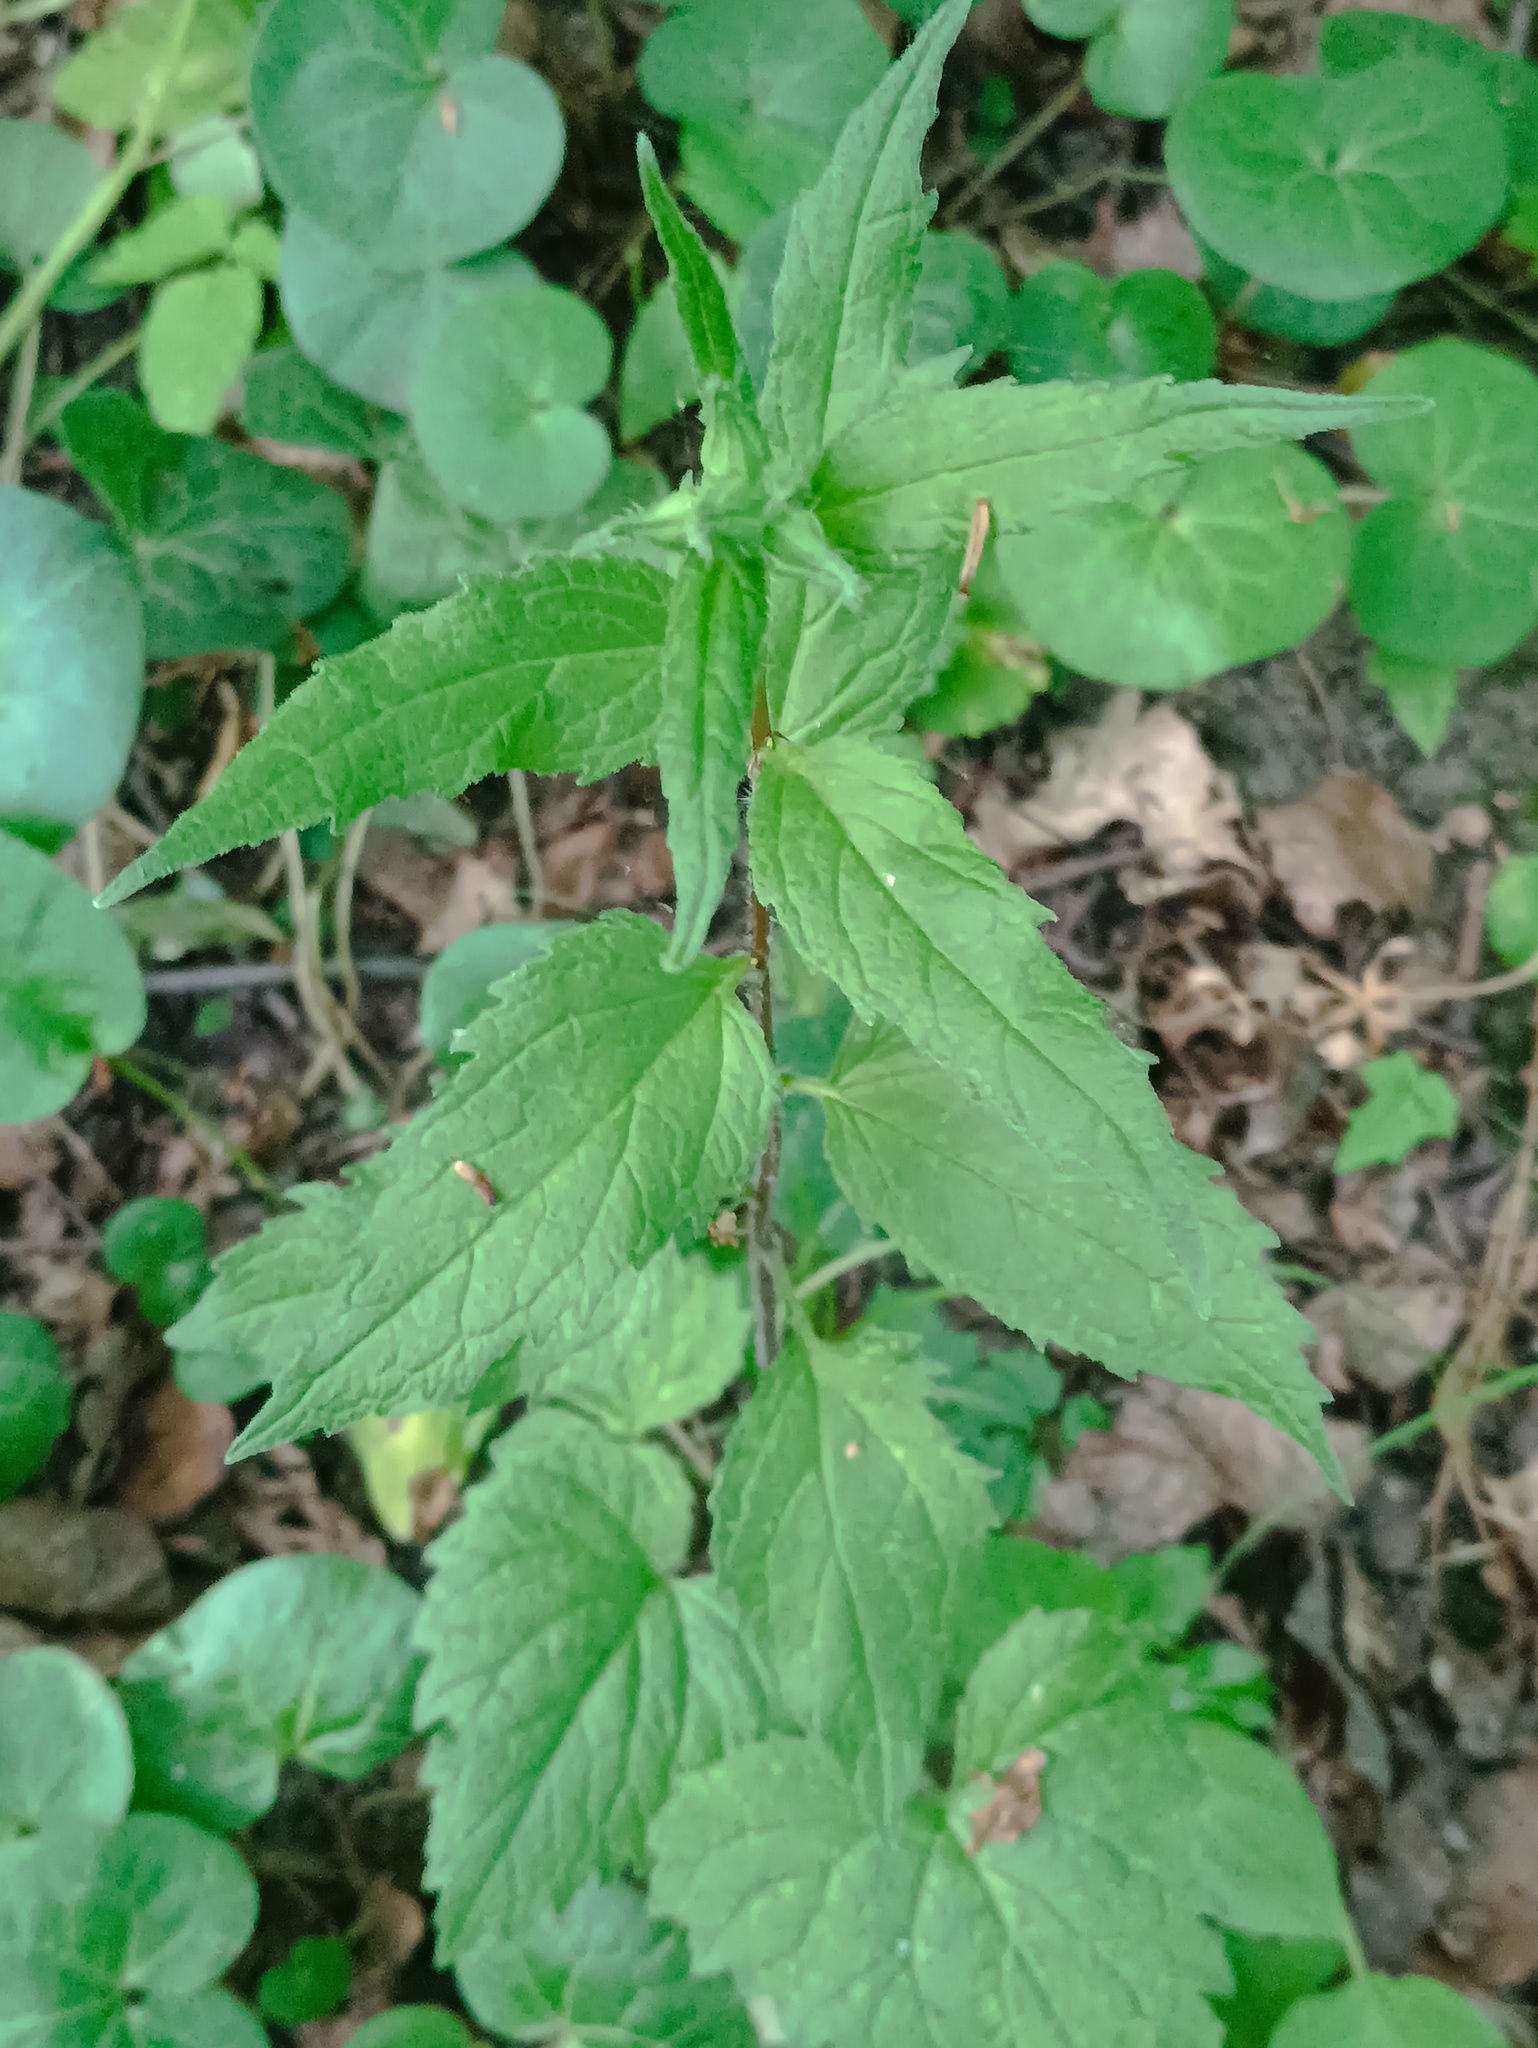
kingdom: Plantae
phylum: Tracheophyta
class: Magnoliopsida
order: Asterales
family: Campanulaceae
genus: Campanula
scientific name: Campanula trachelium
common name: Nettle-leaved bellflower
